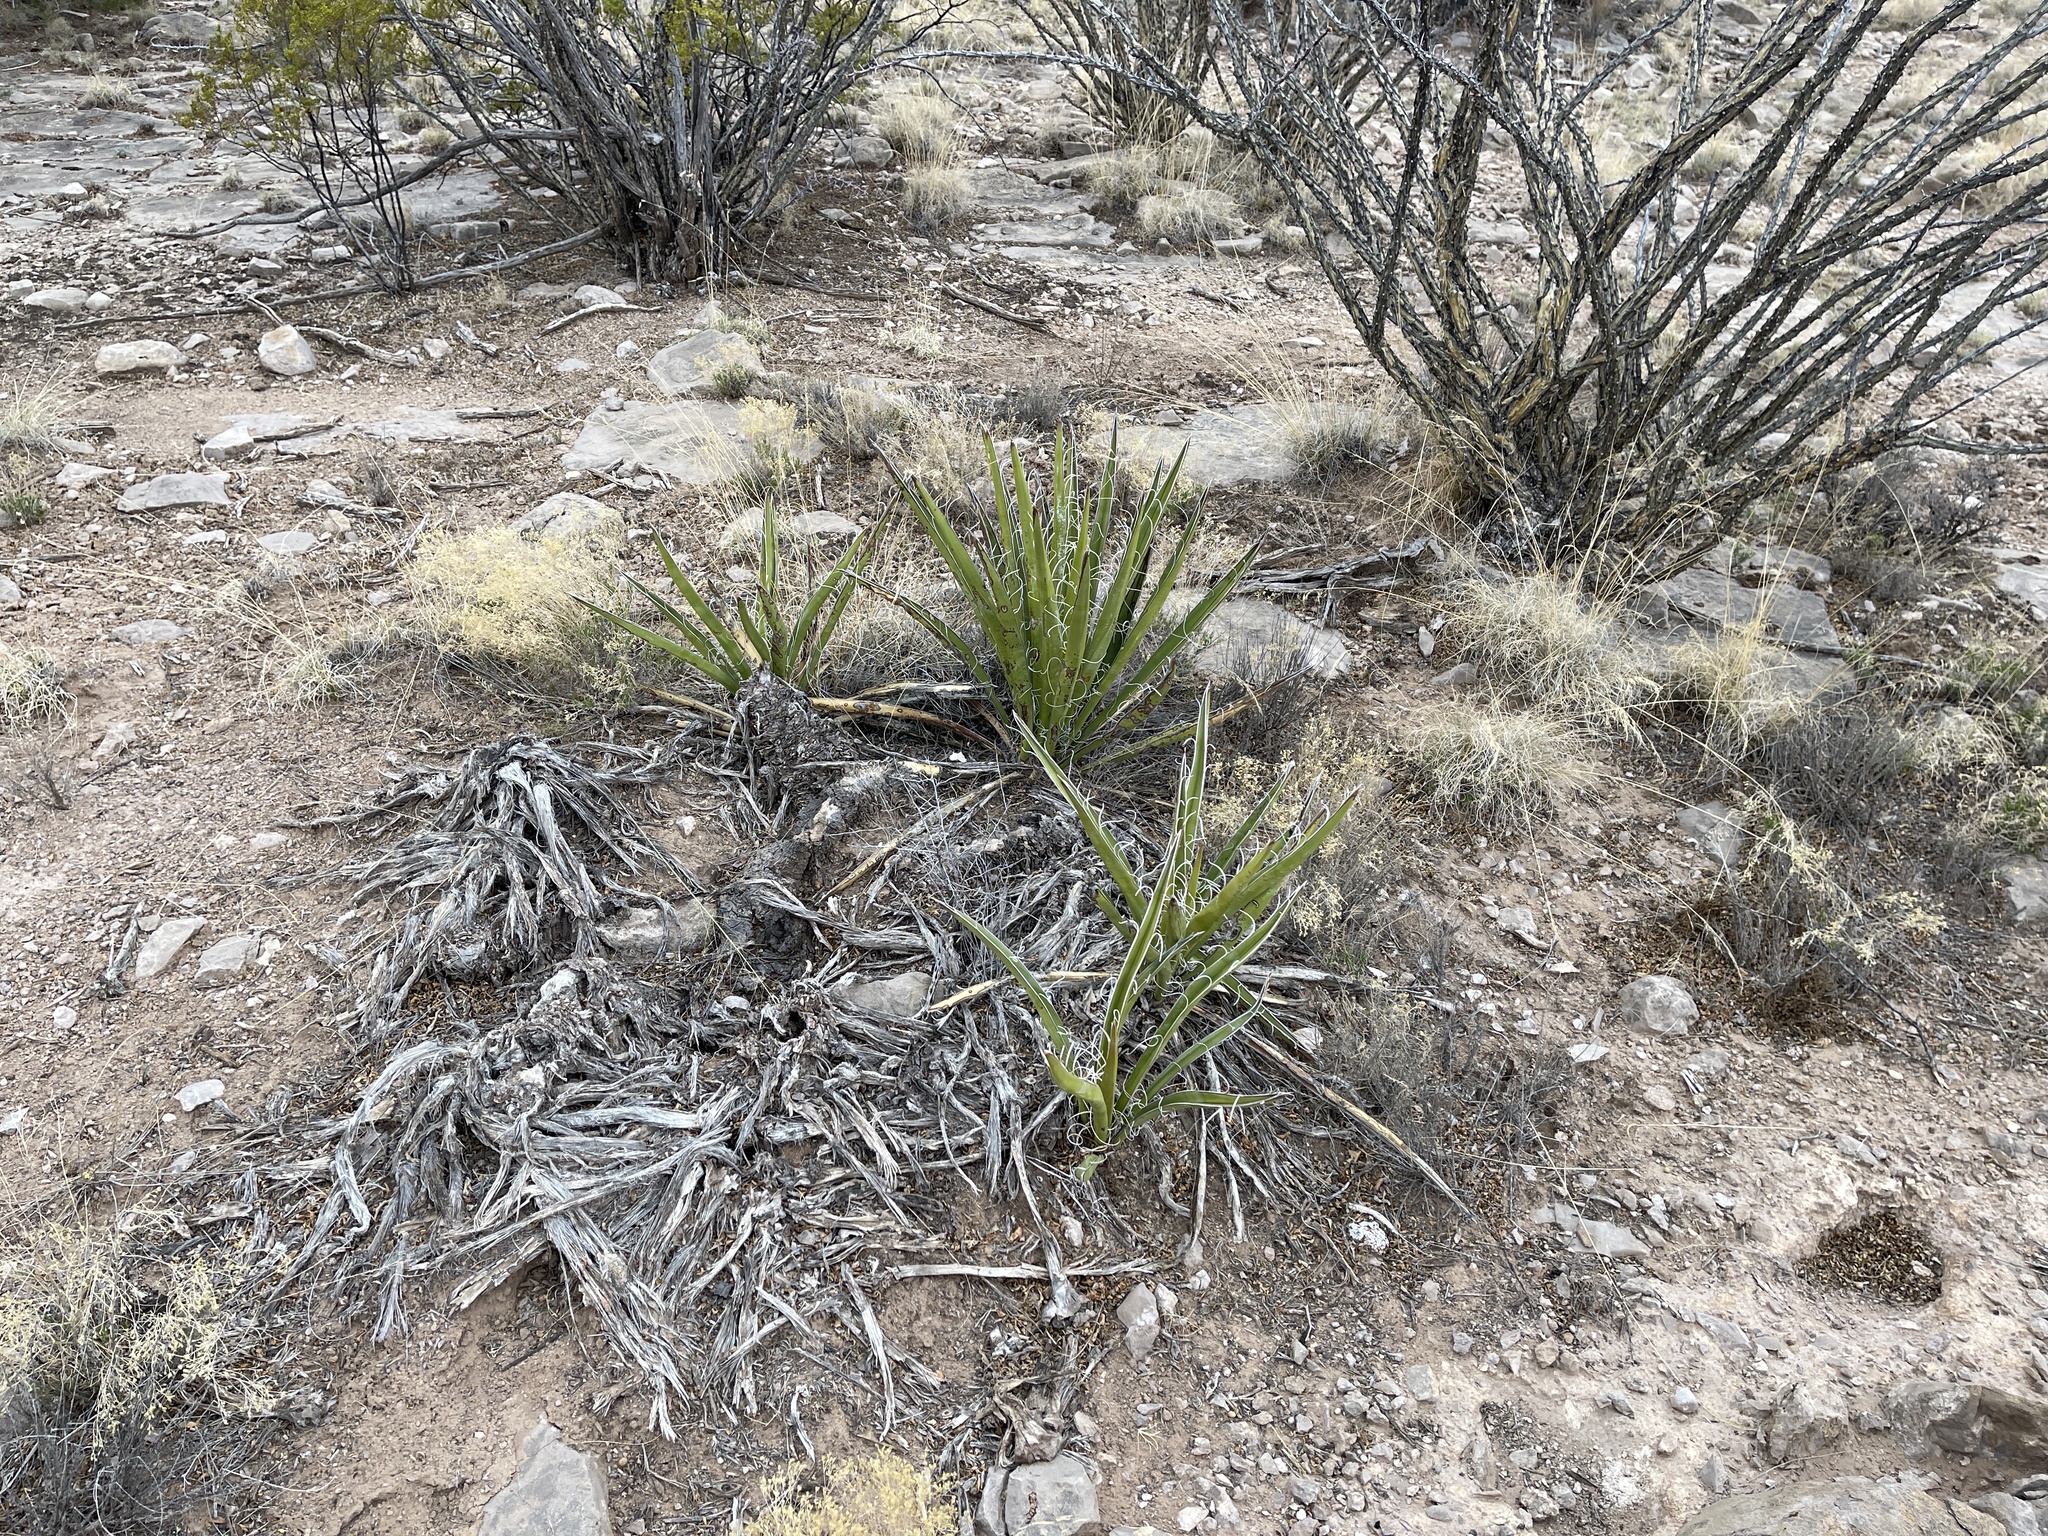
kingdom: Plantae
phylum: Tracheophyta
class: Liliopsida
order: Asparagales
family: Asparagaceae
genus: Yucca
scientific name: Yucca baccata
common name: Banana yucca
